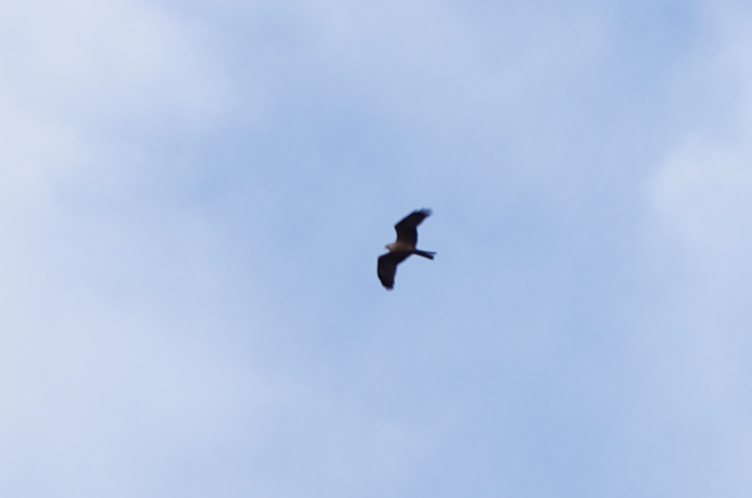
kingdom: Animalia
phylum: Chordata
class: Aves
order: Accipitriformes
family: Accipitridae
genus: Milvus
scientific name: Milvus migrans
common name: Black kite
